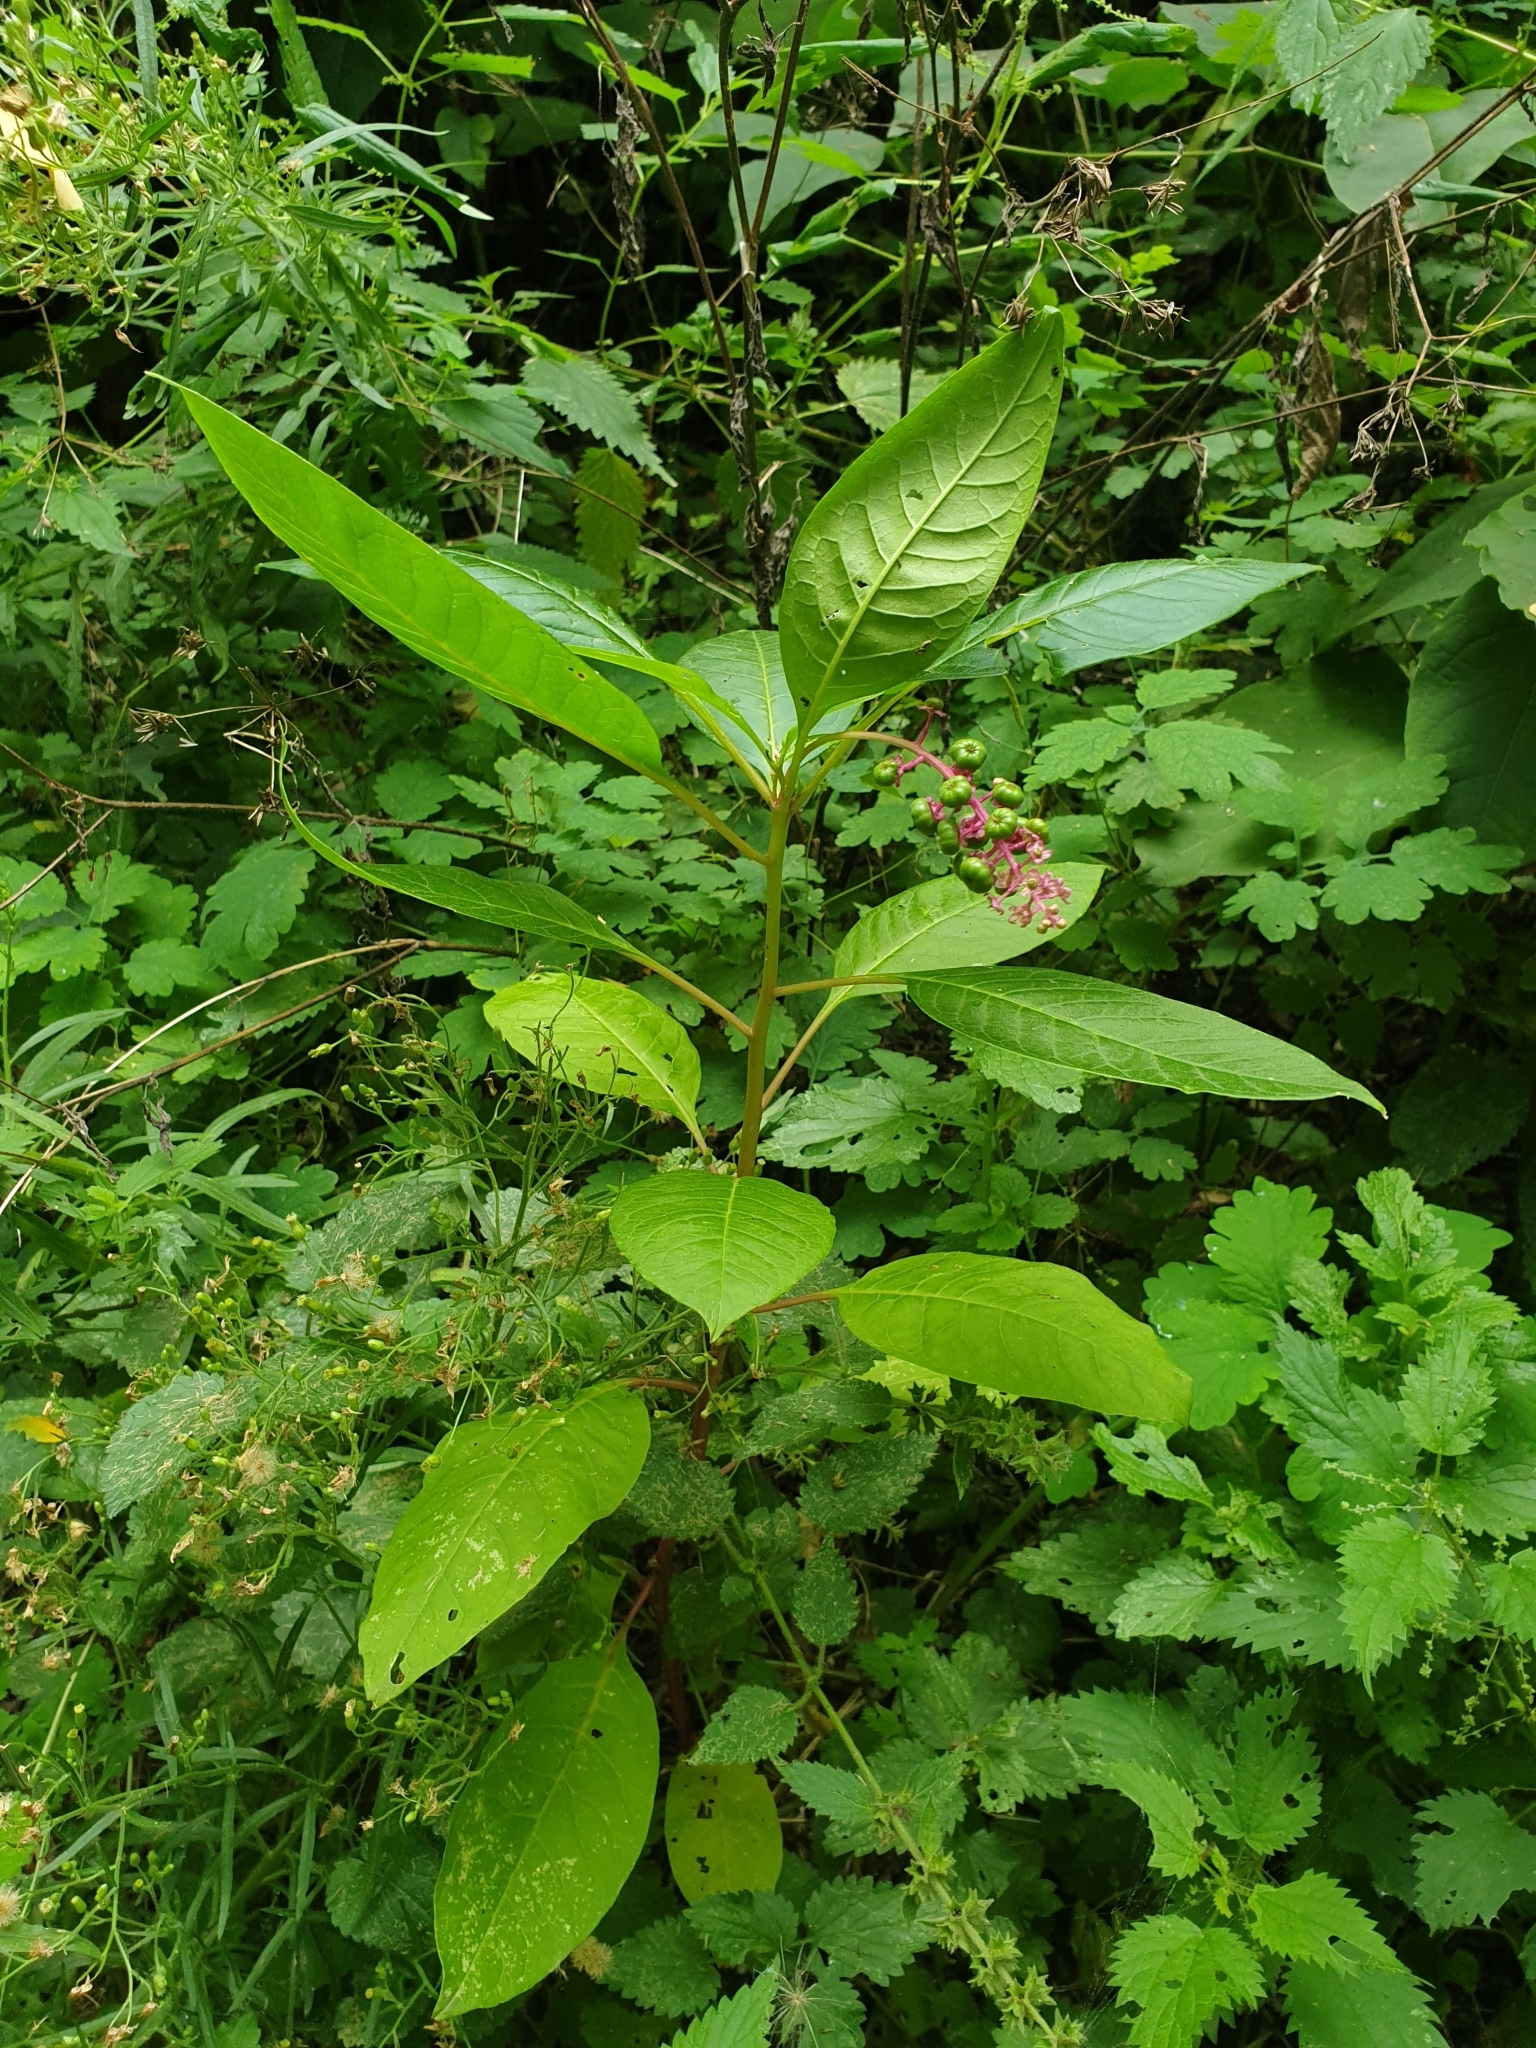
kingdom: Plantae
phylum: Tracheophyta
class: Magnoliopsida
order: Caryophyllales
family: Phytolaccaceae
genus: Phytolacca
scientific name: Phytolacca americana
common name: American pokeweed
